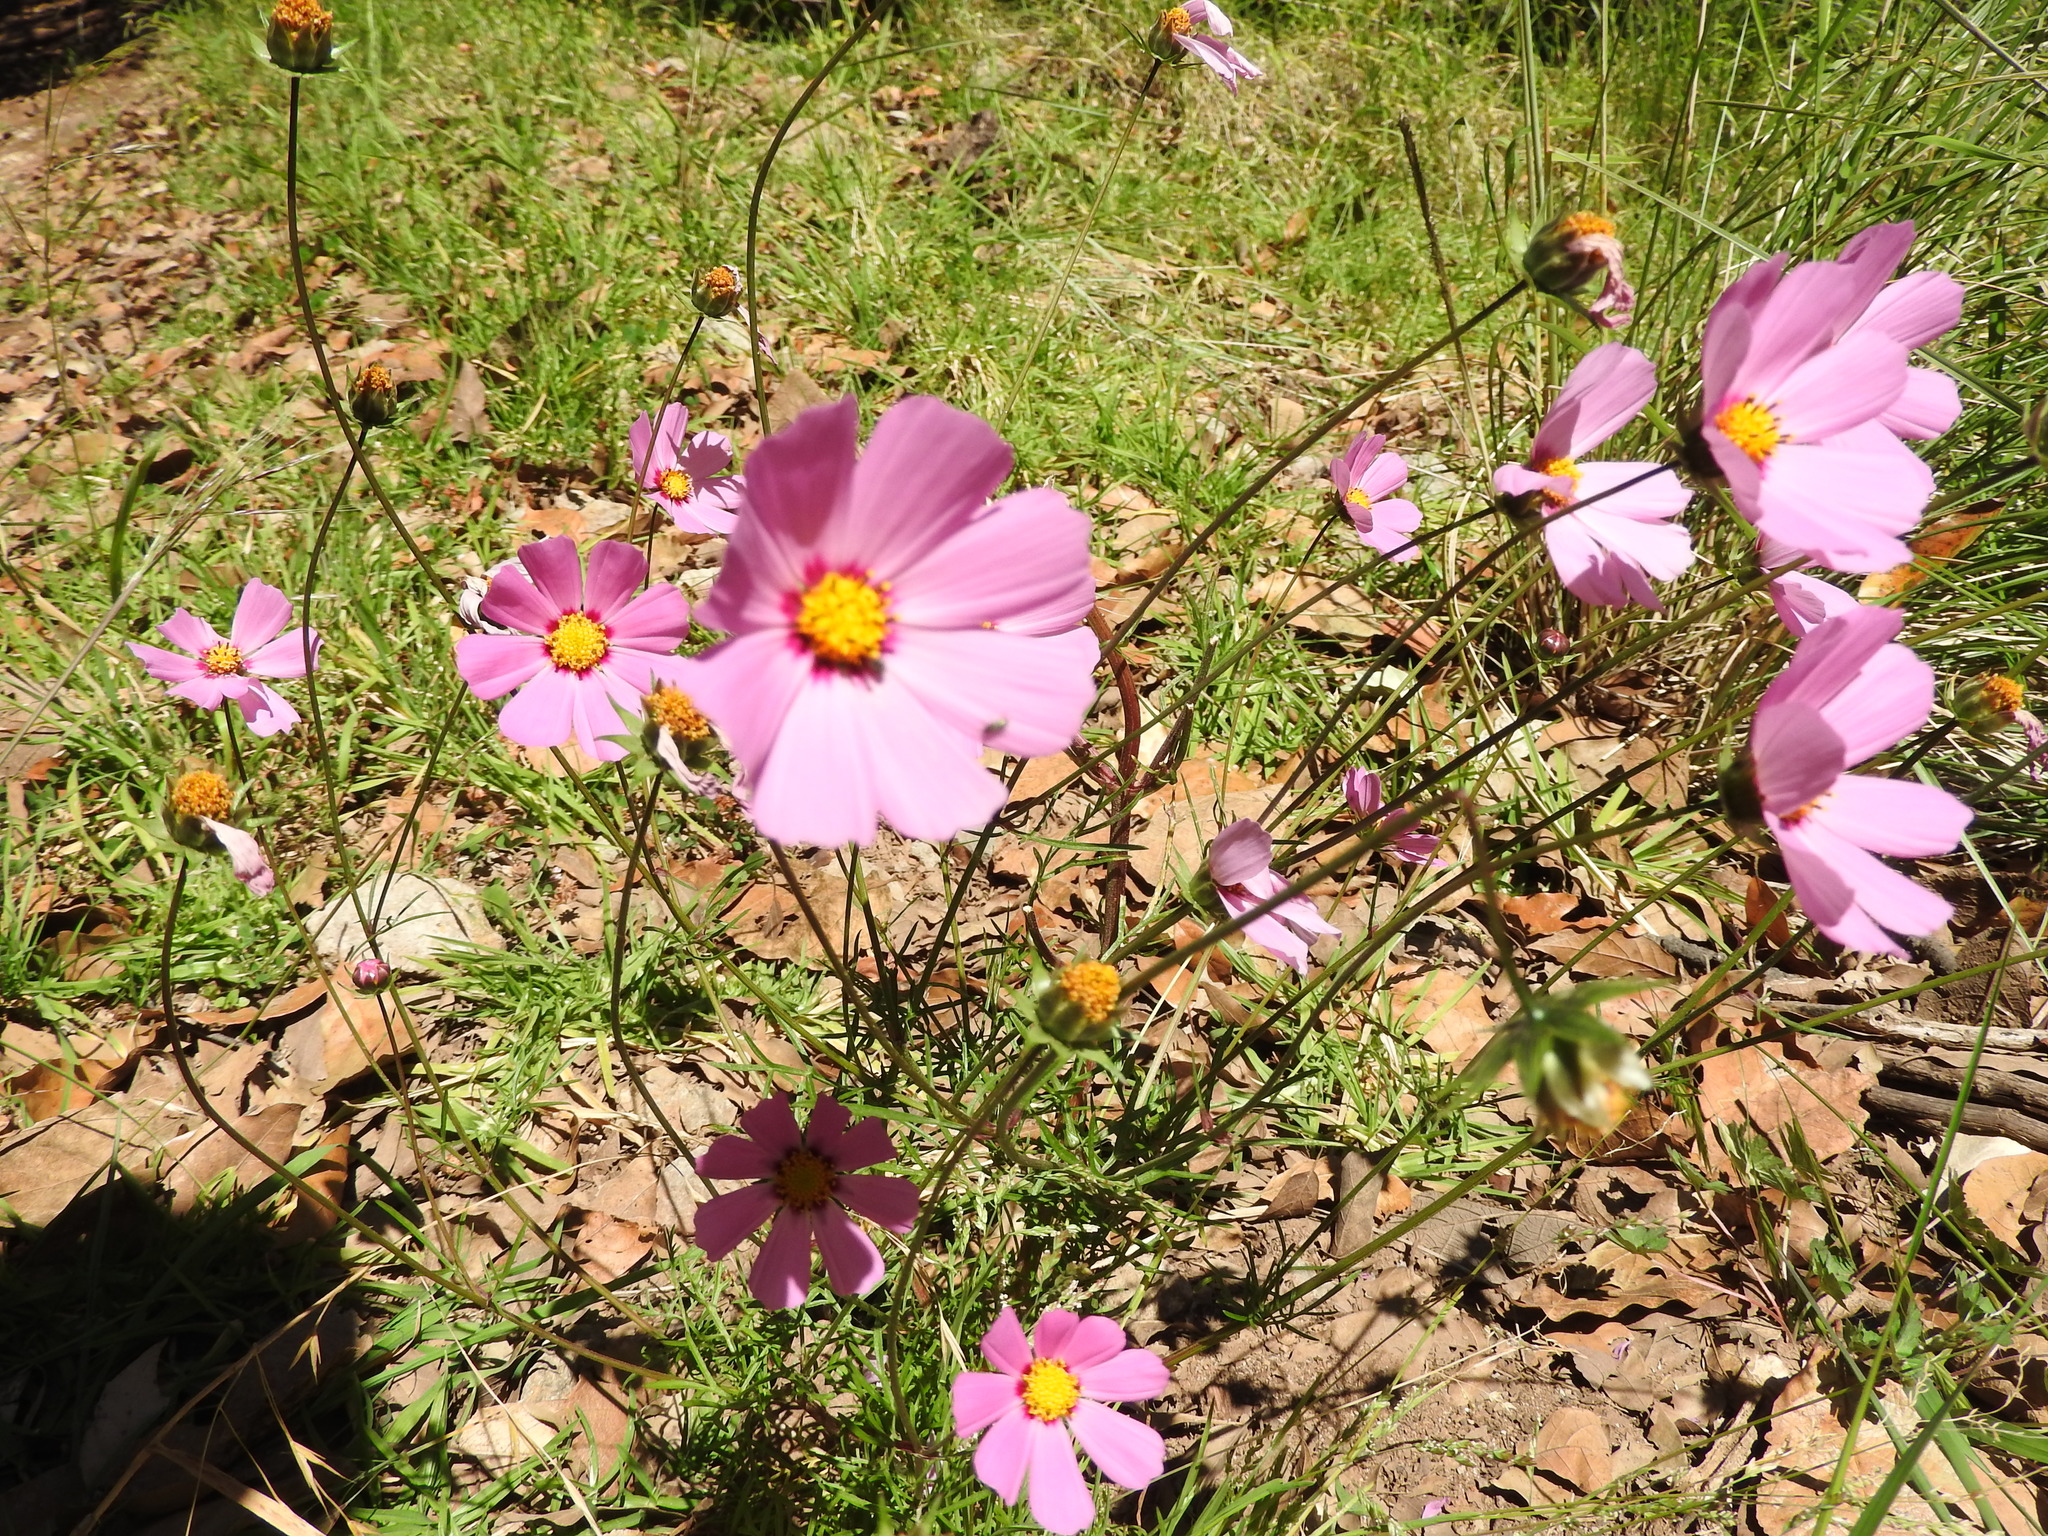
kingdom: Plantae
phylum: Tracheophyta
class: Magnoliopsida
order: Asterales
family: Asteraceae
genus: Cosmos
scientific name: Cosmos bipinnatus
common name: Garden cosmos
